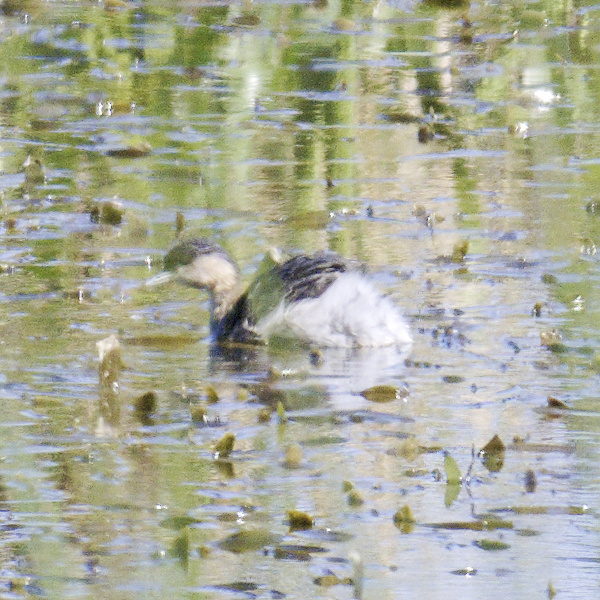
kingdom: Animalia
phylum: Chordata
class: Aves
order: Podicipediformes
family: Podicipedidae
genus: Poliocephalus
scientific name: Poliocephalus poliocephalus
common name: Hoary-headed grebe
